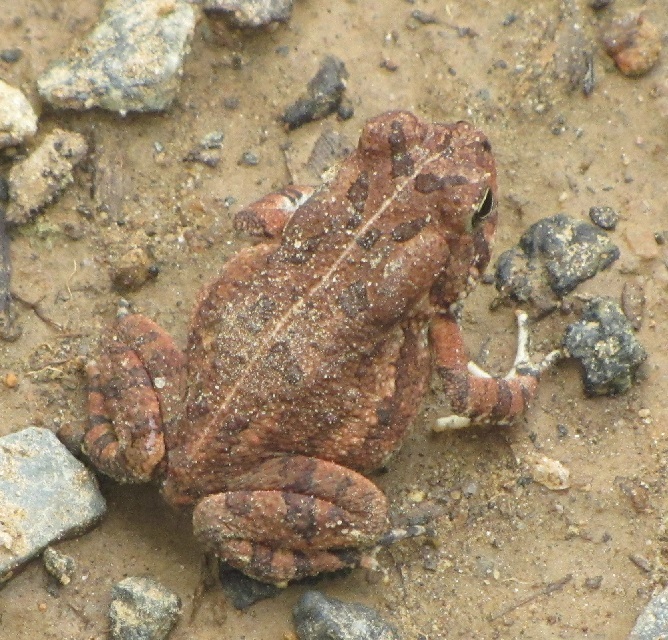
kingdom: Animalia
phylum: Chordata
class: Amphibia
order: Anura
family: Bufonidae
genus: Anaxyrus
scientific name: Anaxyrus fowleri
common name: Fowler's toad
